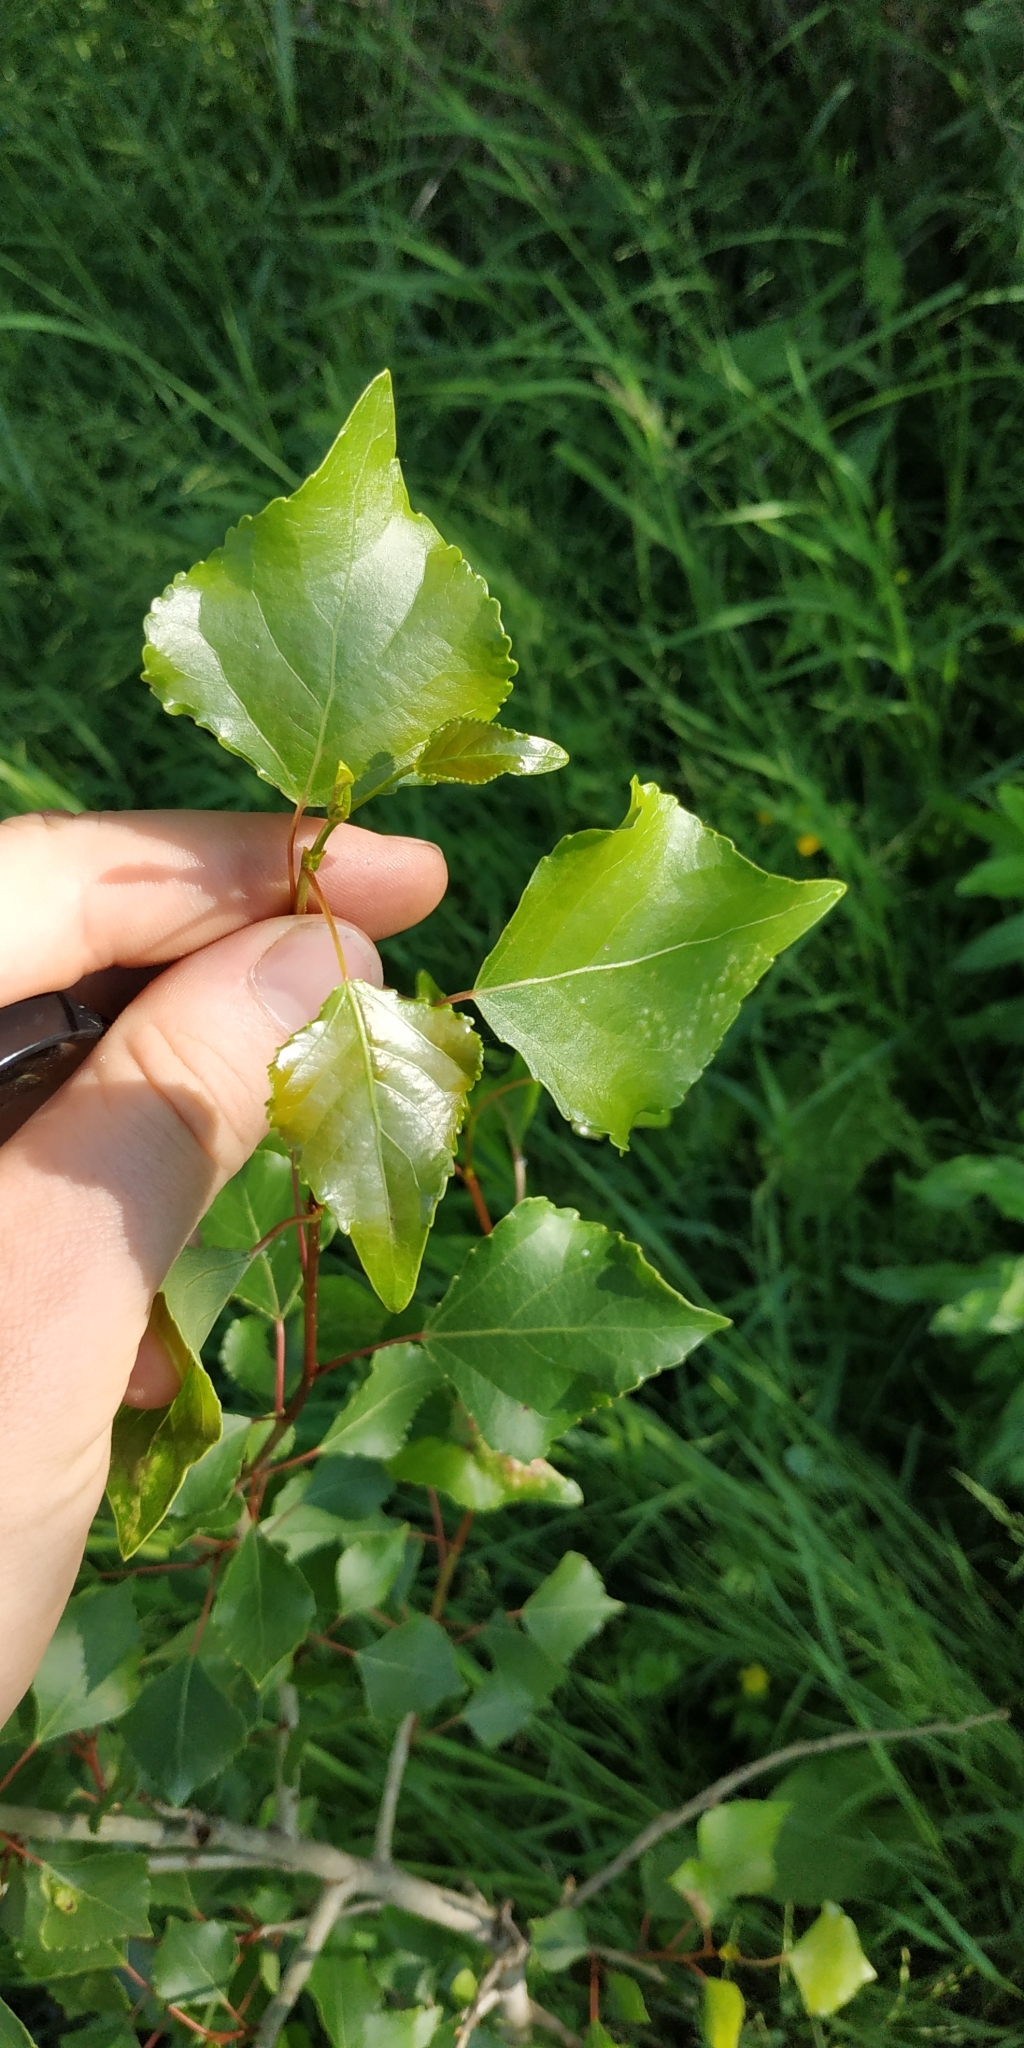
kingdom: Plantae
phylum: Tracheophyta
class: Magnoliopsida
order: Malpighiales
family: Salicaceae
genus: Populus
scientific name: Populus nigra
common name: Black poplar
